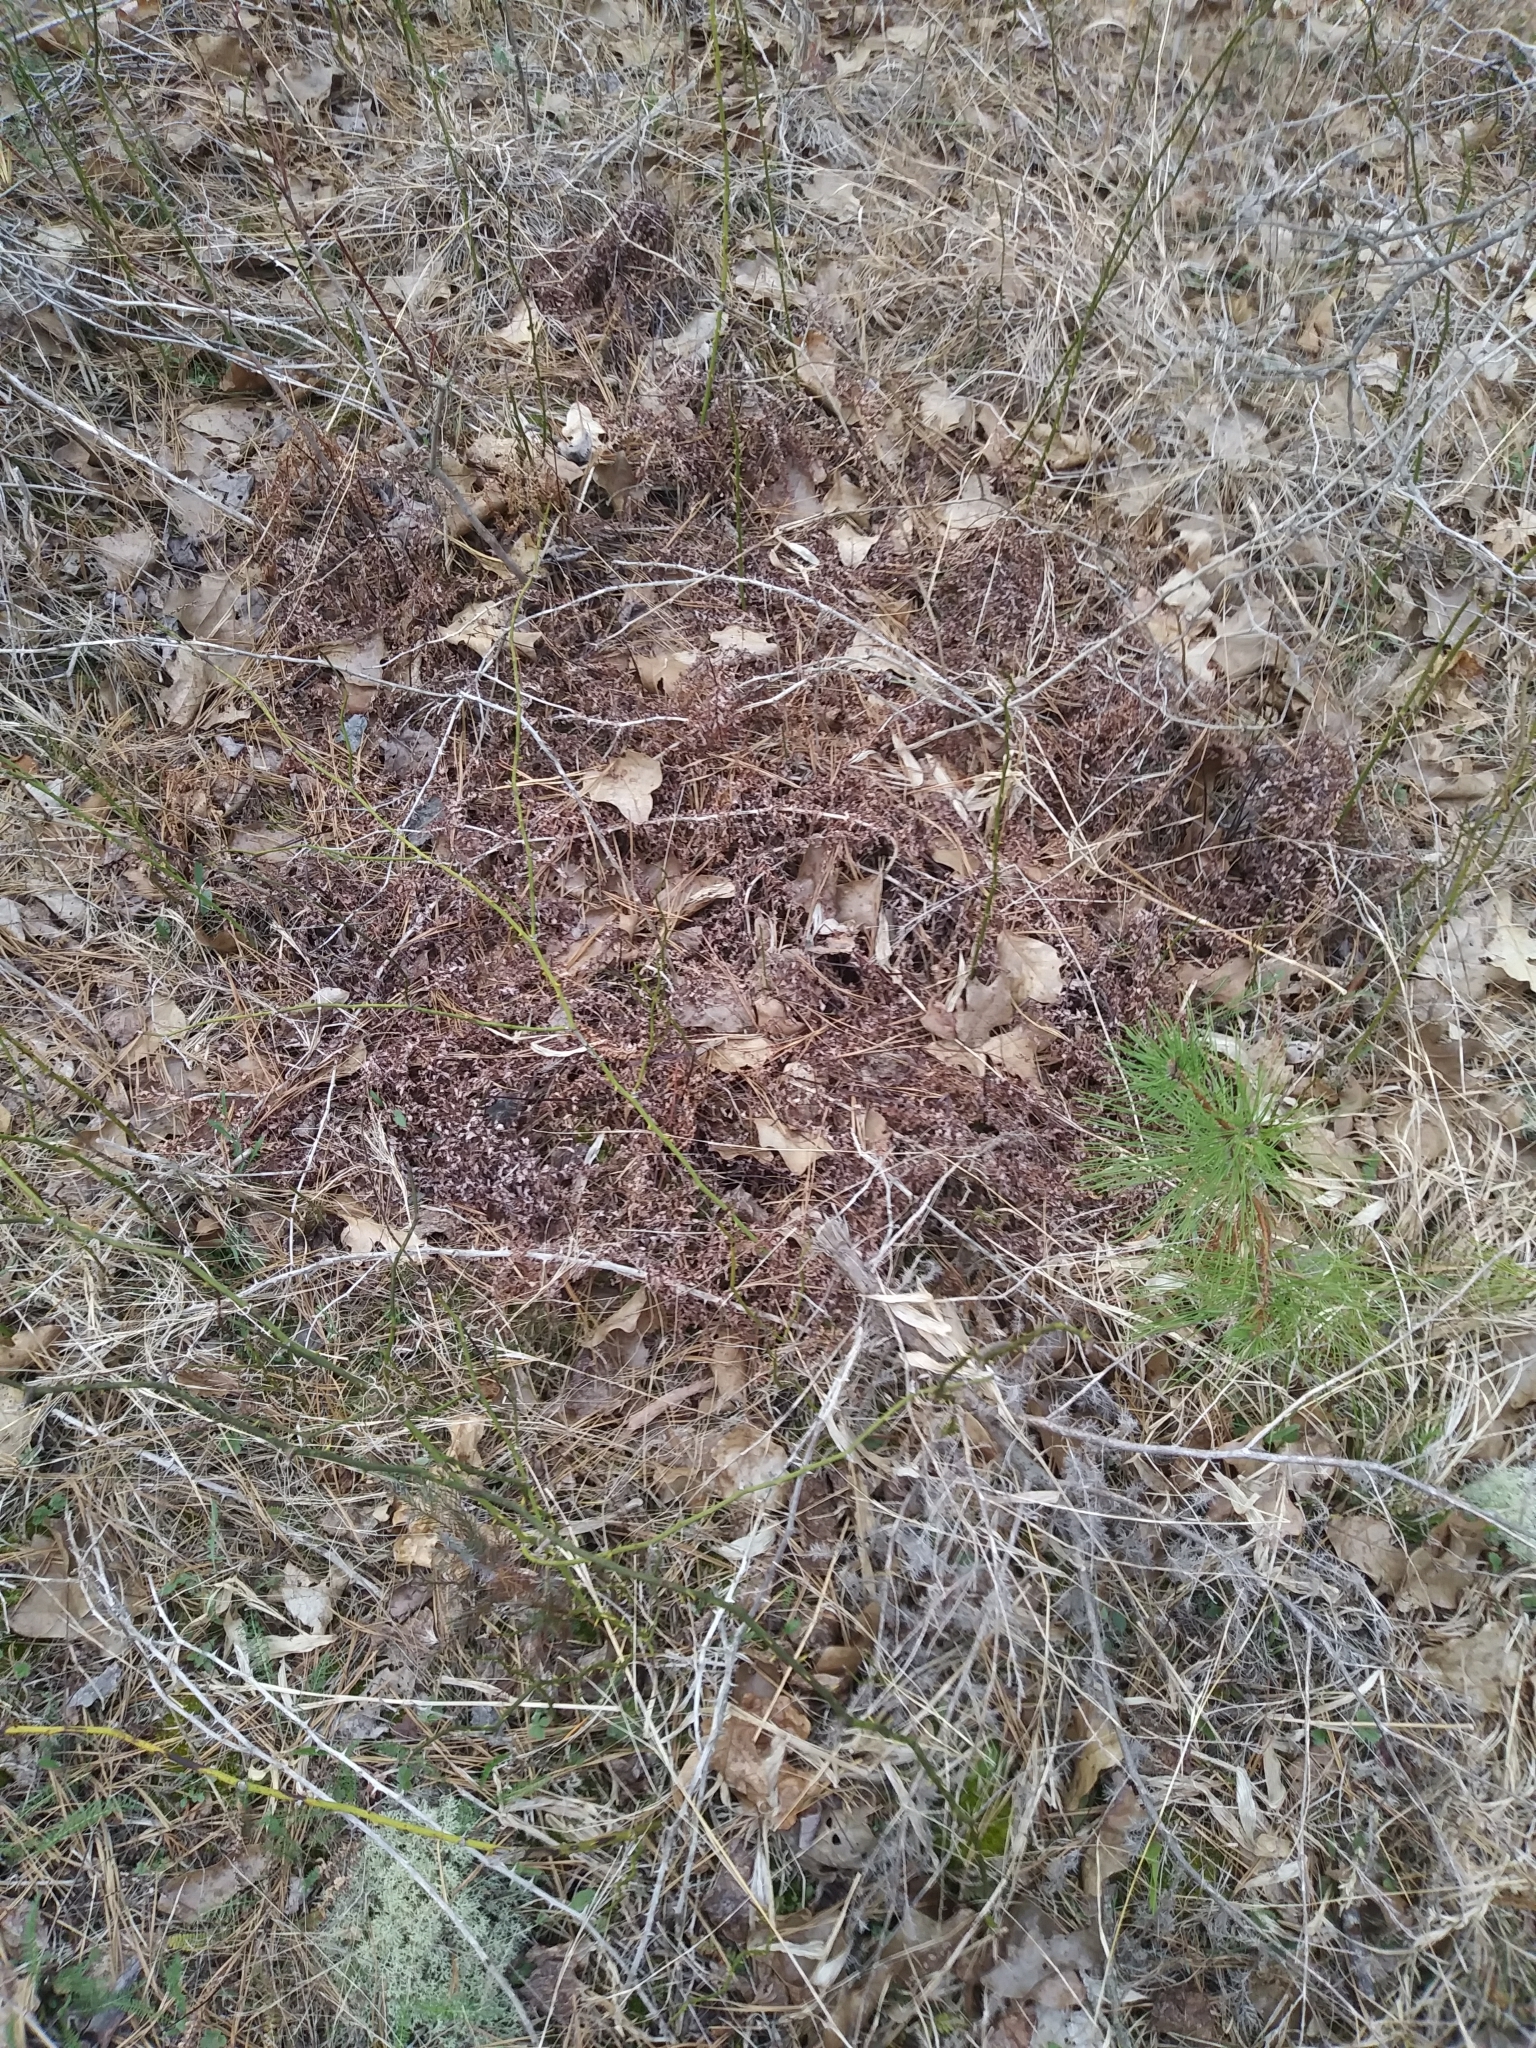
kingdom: Plantae
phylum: Tracheophyta
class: Polypodiopsida
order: Polypodiales
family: Pteridaceae
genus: Adiantum
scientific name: Adiantum pedatum
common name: Five-finger fern
